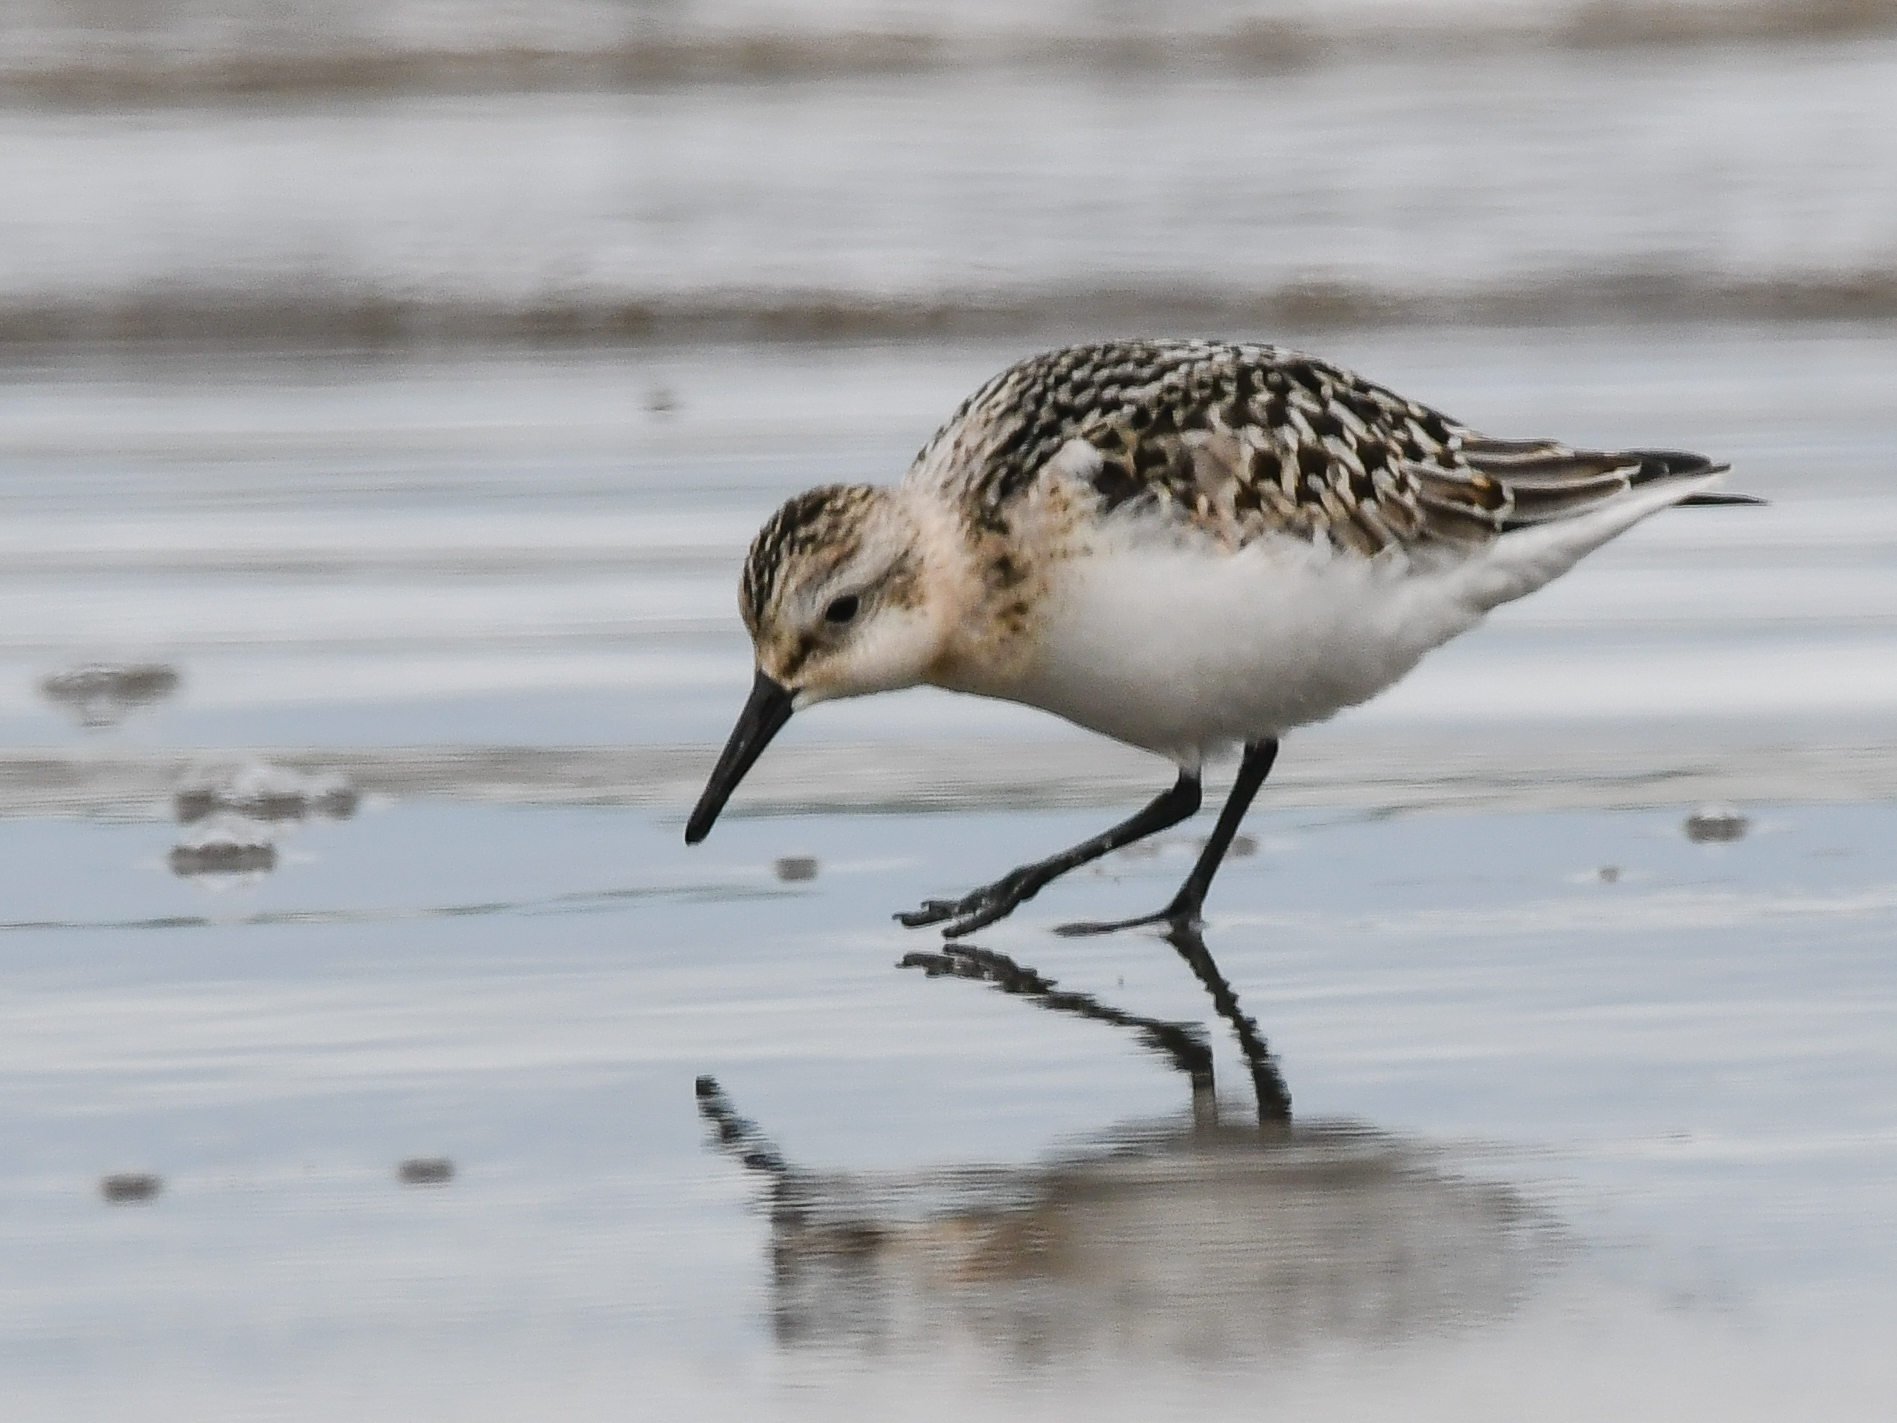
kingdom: Animalia
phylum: Chordata
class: Aves
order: Charadriiformes
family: Scolopacidae
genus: Calidris
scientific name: Calidris alba
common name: Sanderling
